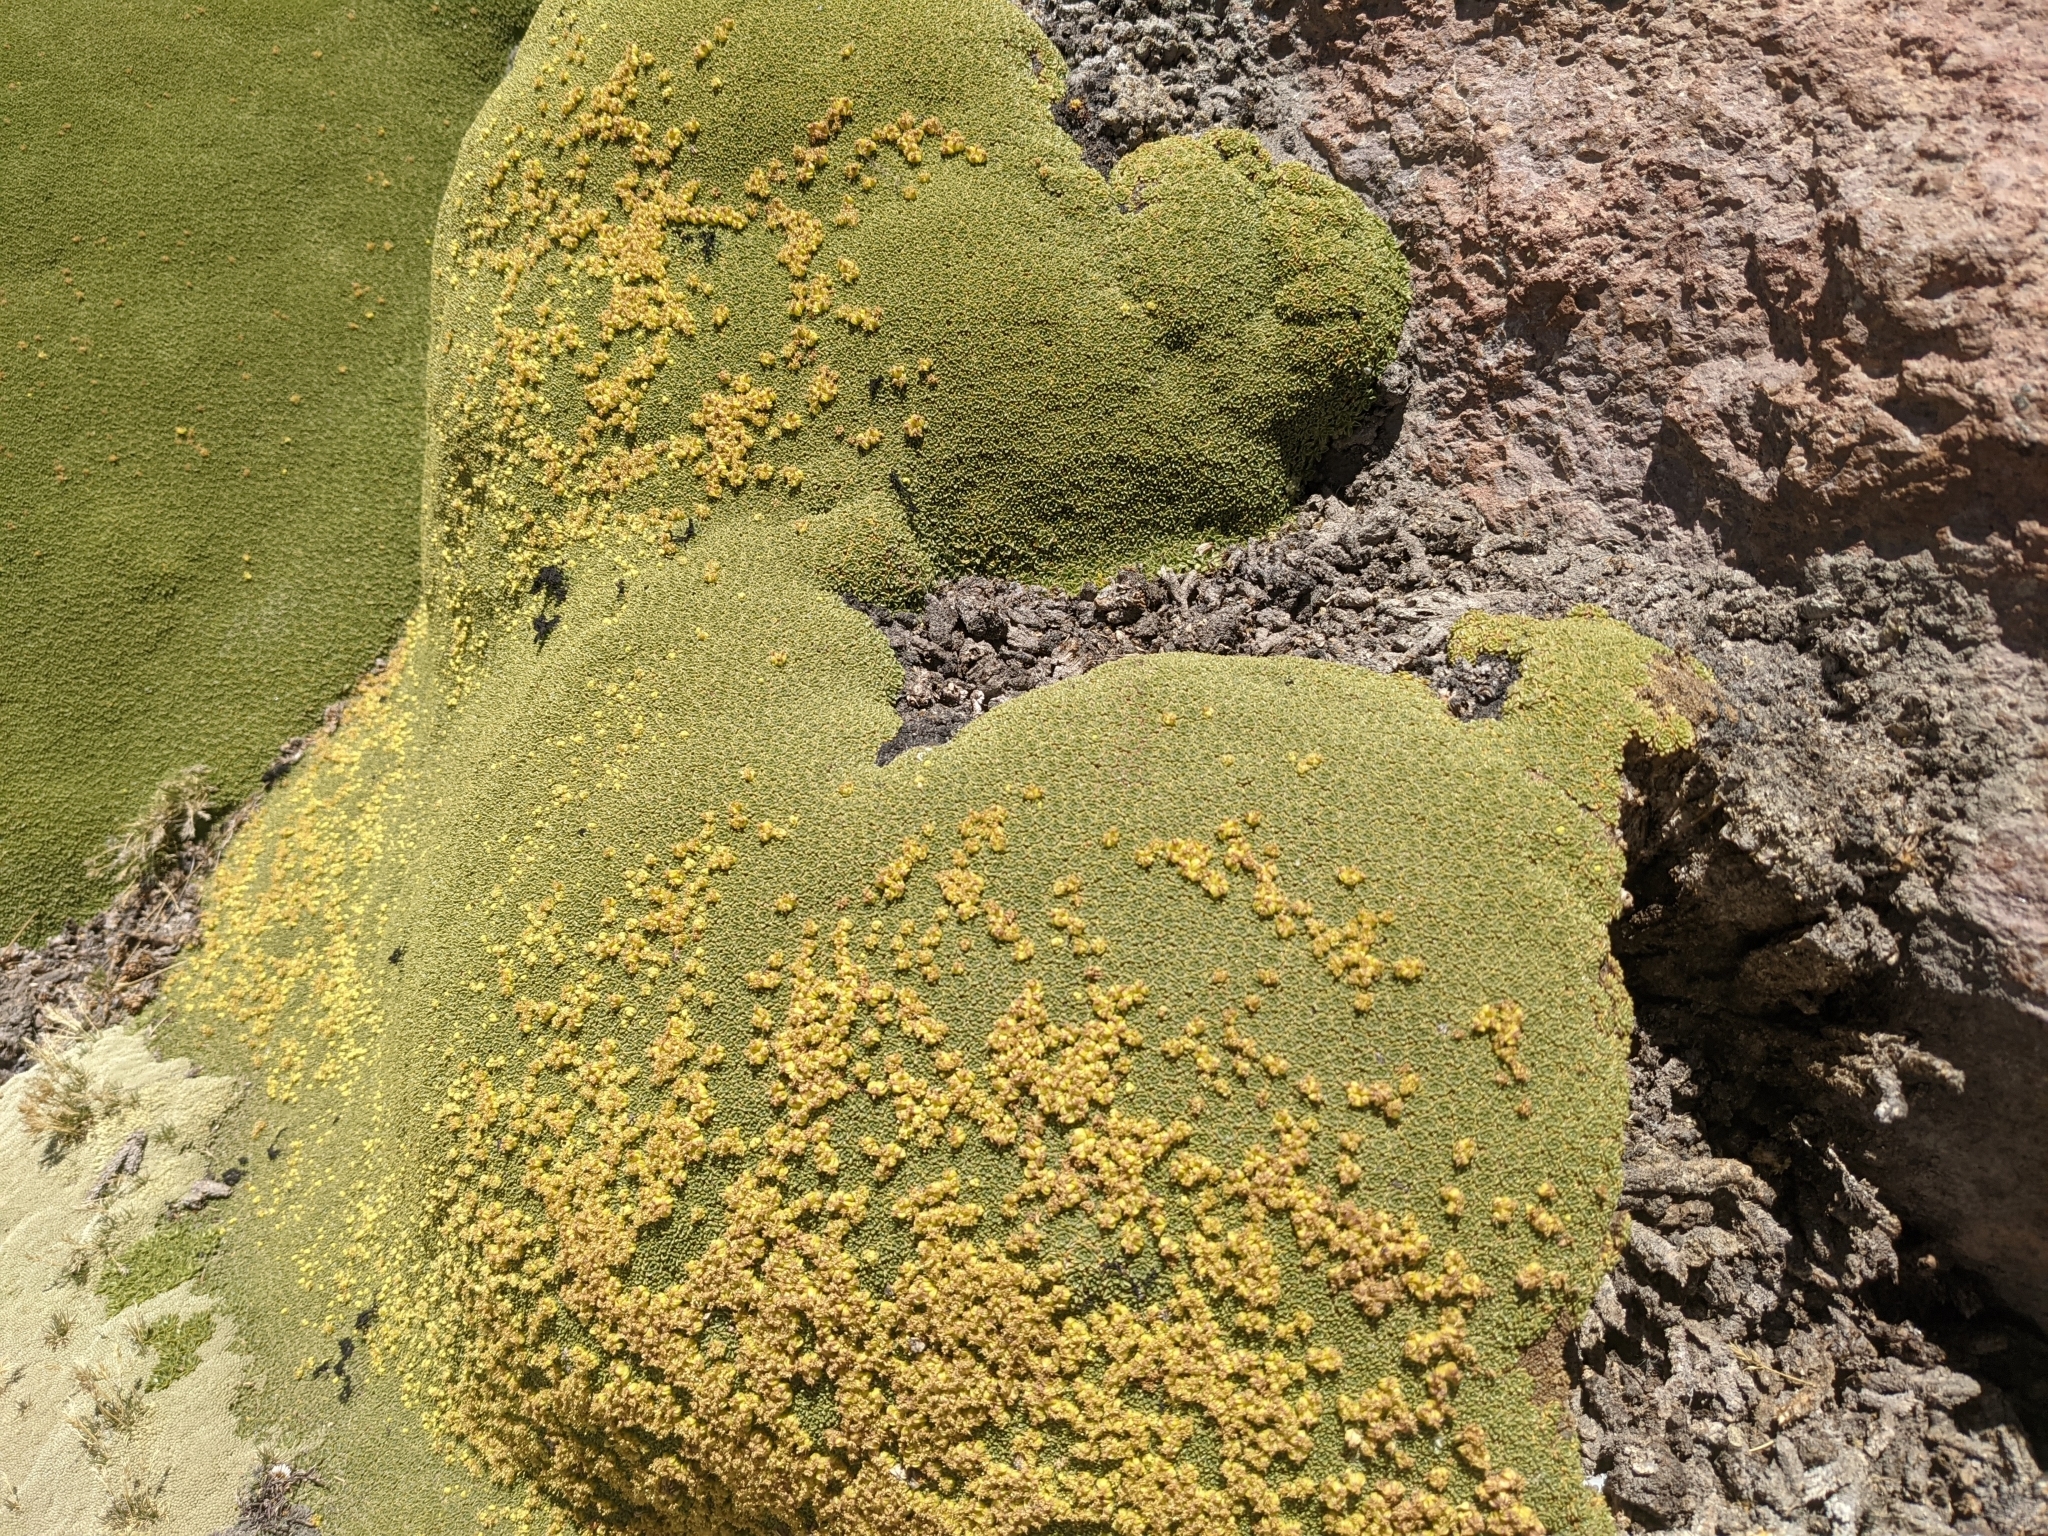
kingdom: Plantae
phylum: Tracheophyta
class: Magnoliopsida
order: Apiales
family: Apiaceae
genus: Azorella
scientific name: Azorella compacta
